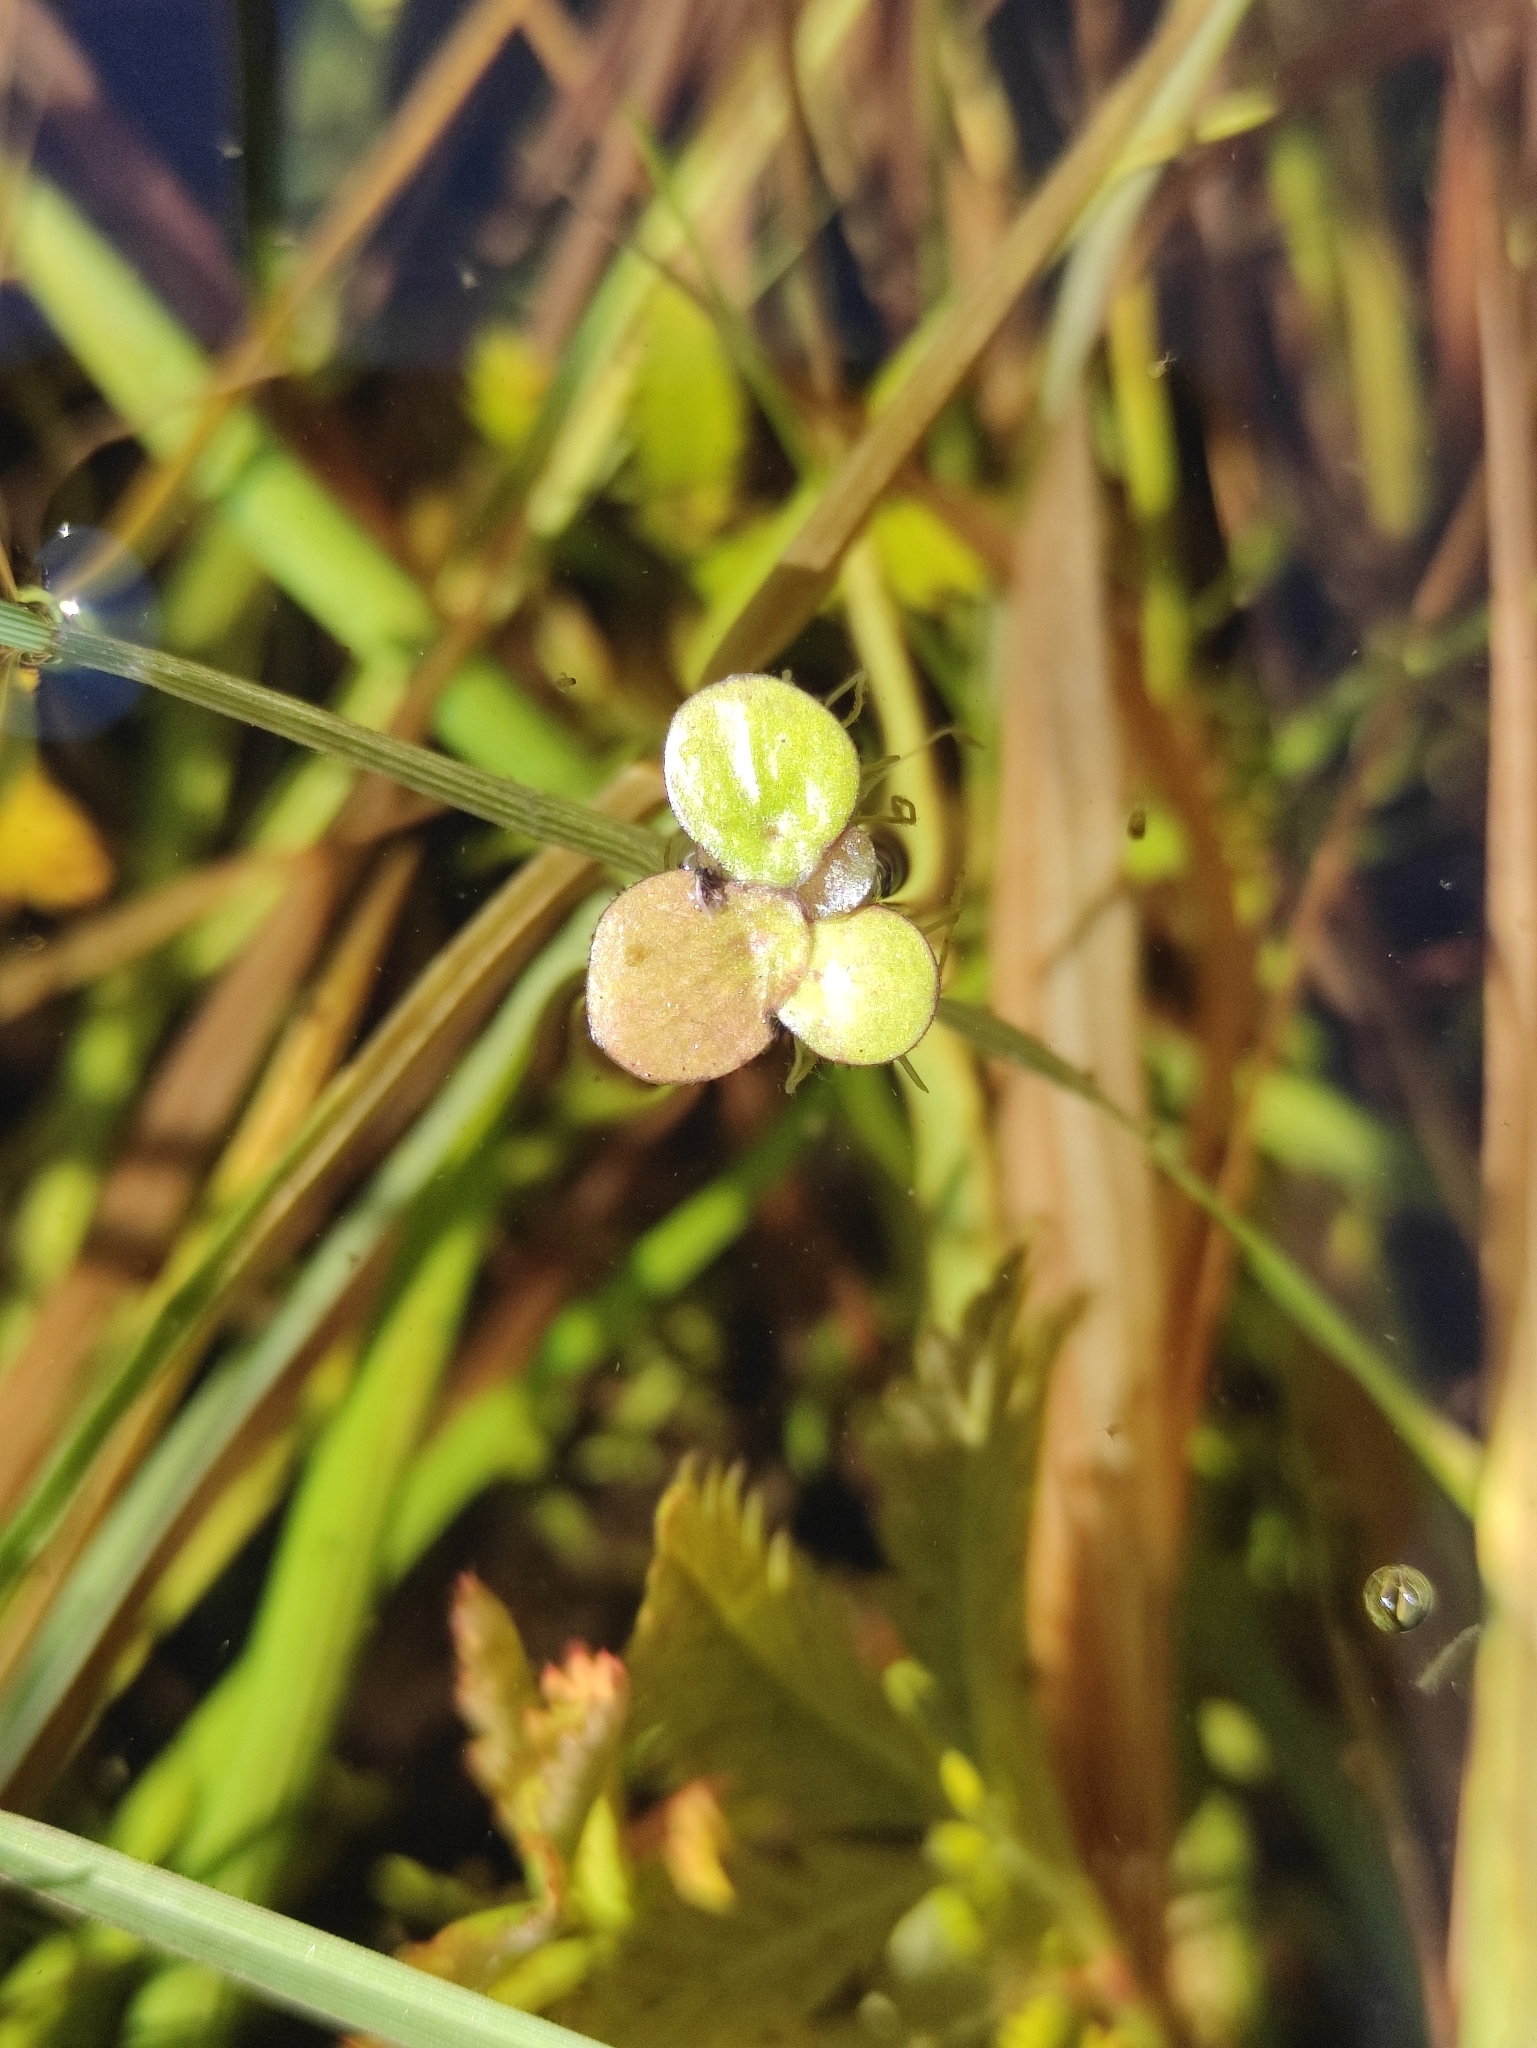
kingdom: Plantae
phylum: Tracheophyta
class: Liliopsida
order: Alismatales
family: Araceae
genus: Spirodela
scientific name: Spirodela polyrhiza
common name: Great duckweed
